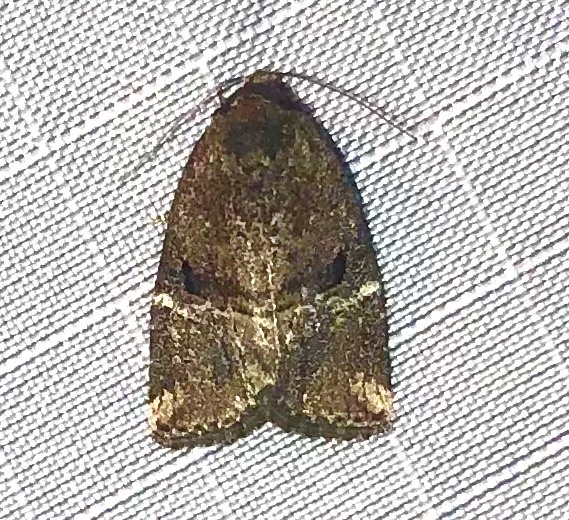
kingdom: Animalia
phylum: Arthropoda
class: Insecta
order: Lepidoptera
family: Noctuidae
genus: Elaphria
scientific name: Elaphria versicolor
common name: Fir harlequin
